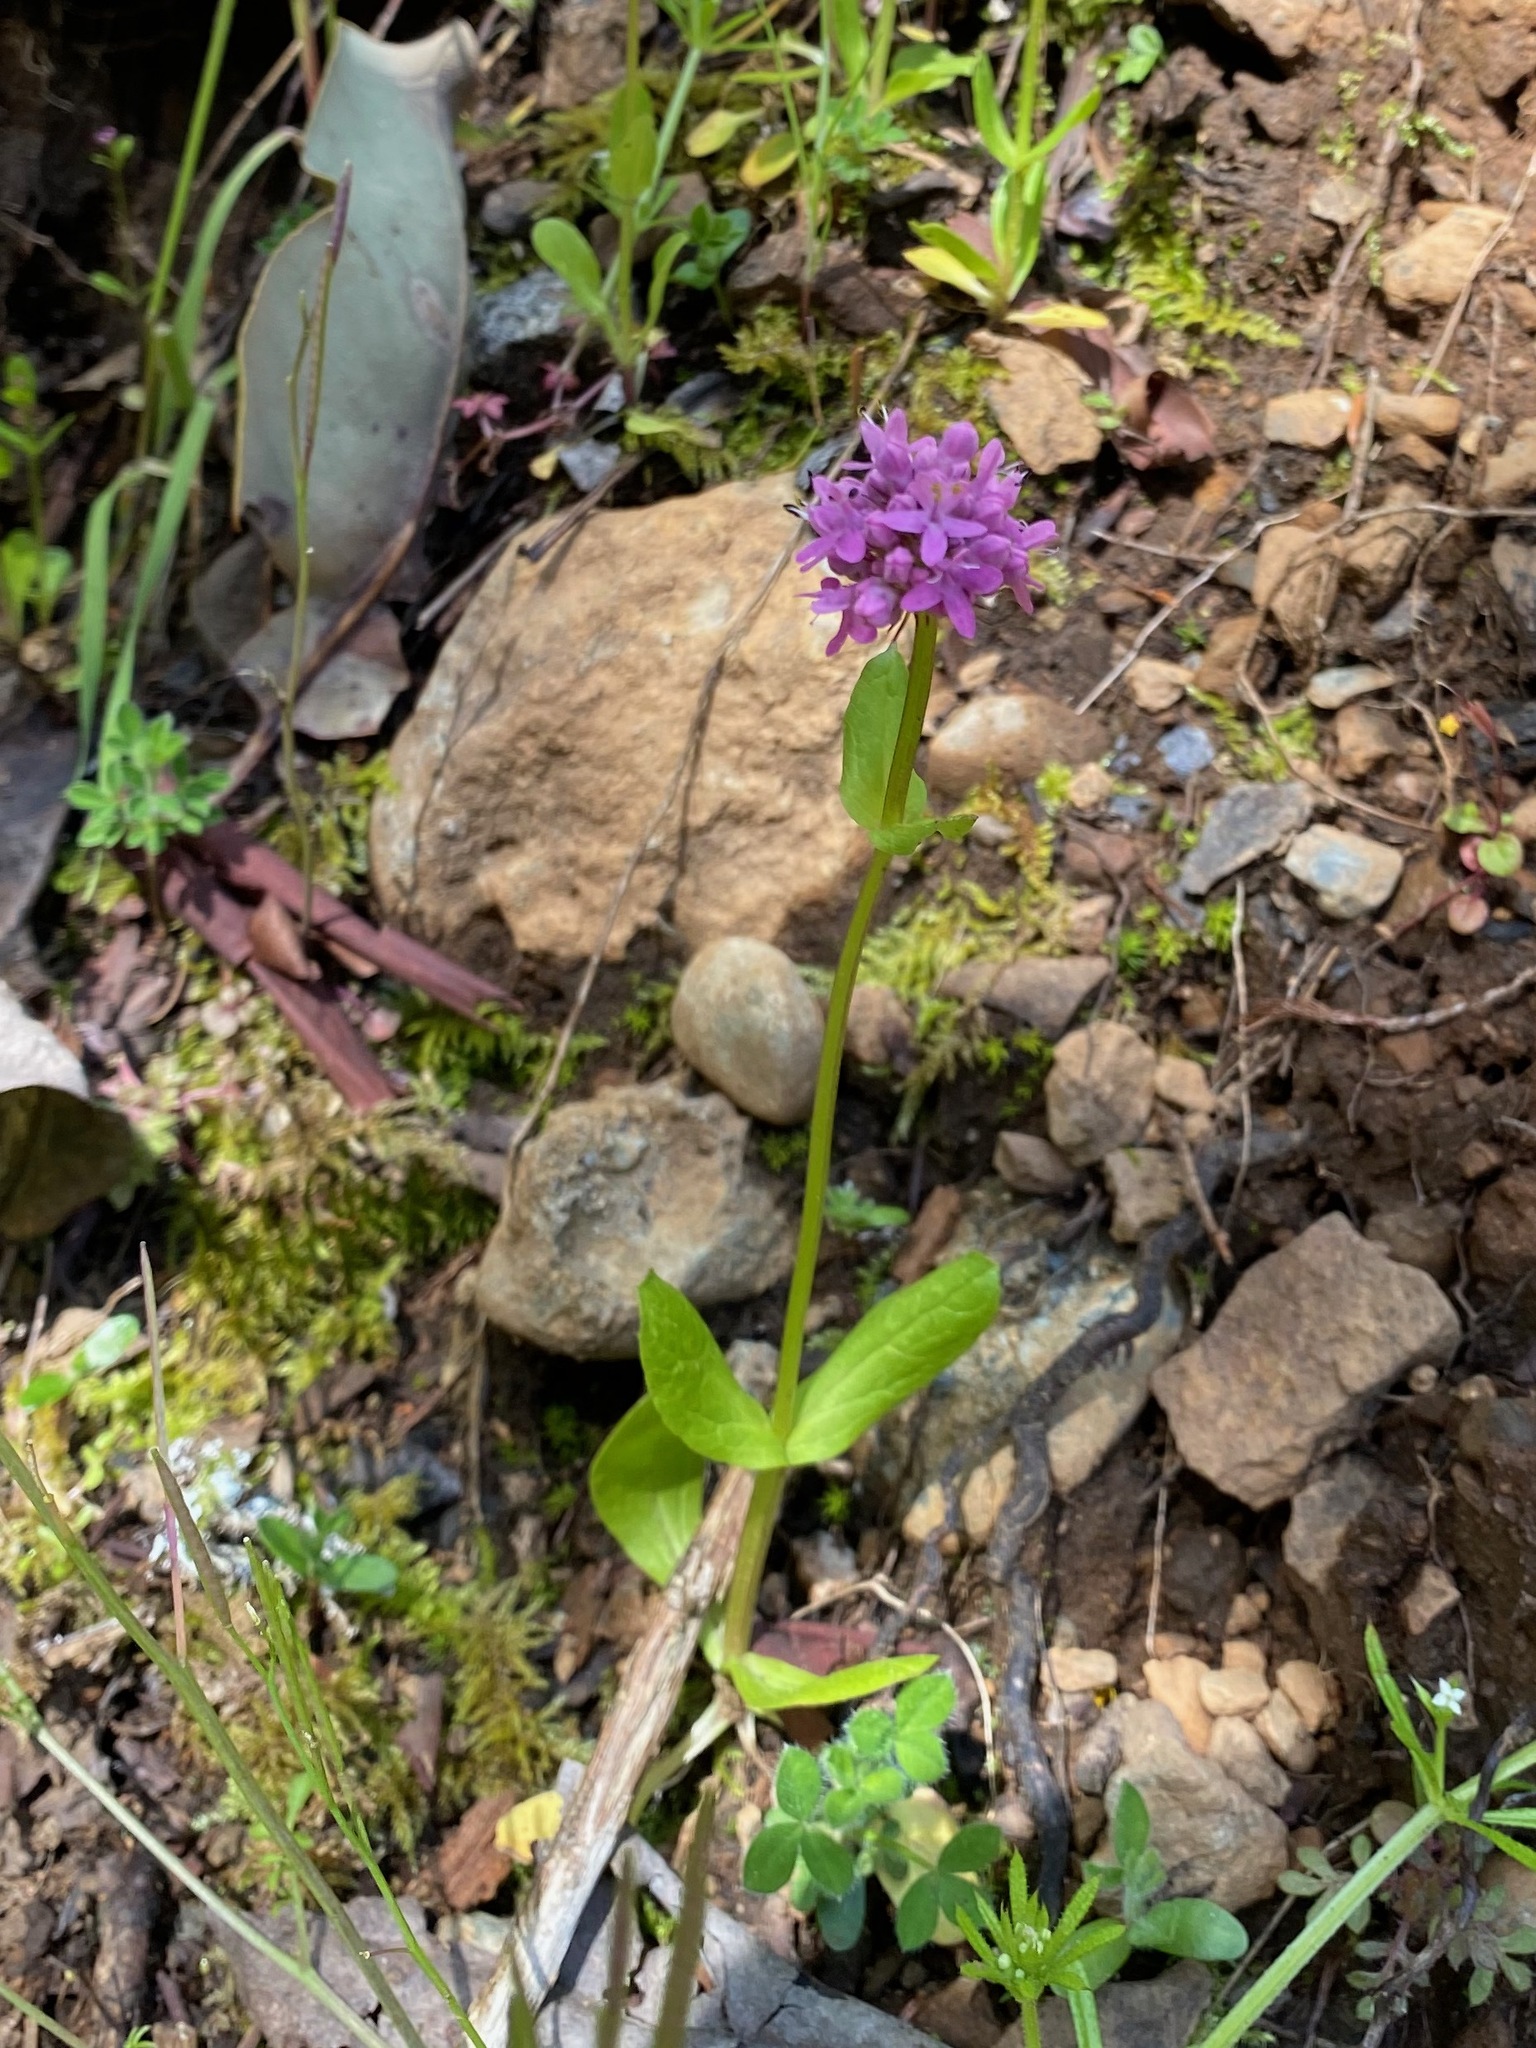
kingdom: Plantae
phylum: Tracheophyta
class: Magnoliopsida
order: Dipsacales
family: Caprifoliaceae
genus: Plectritis
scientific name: Plectritis congesta
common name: Pink plectritis
